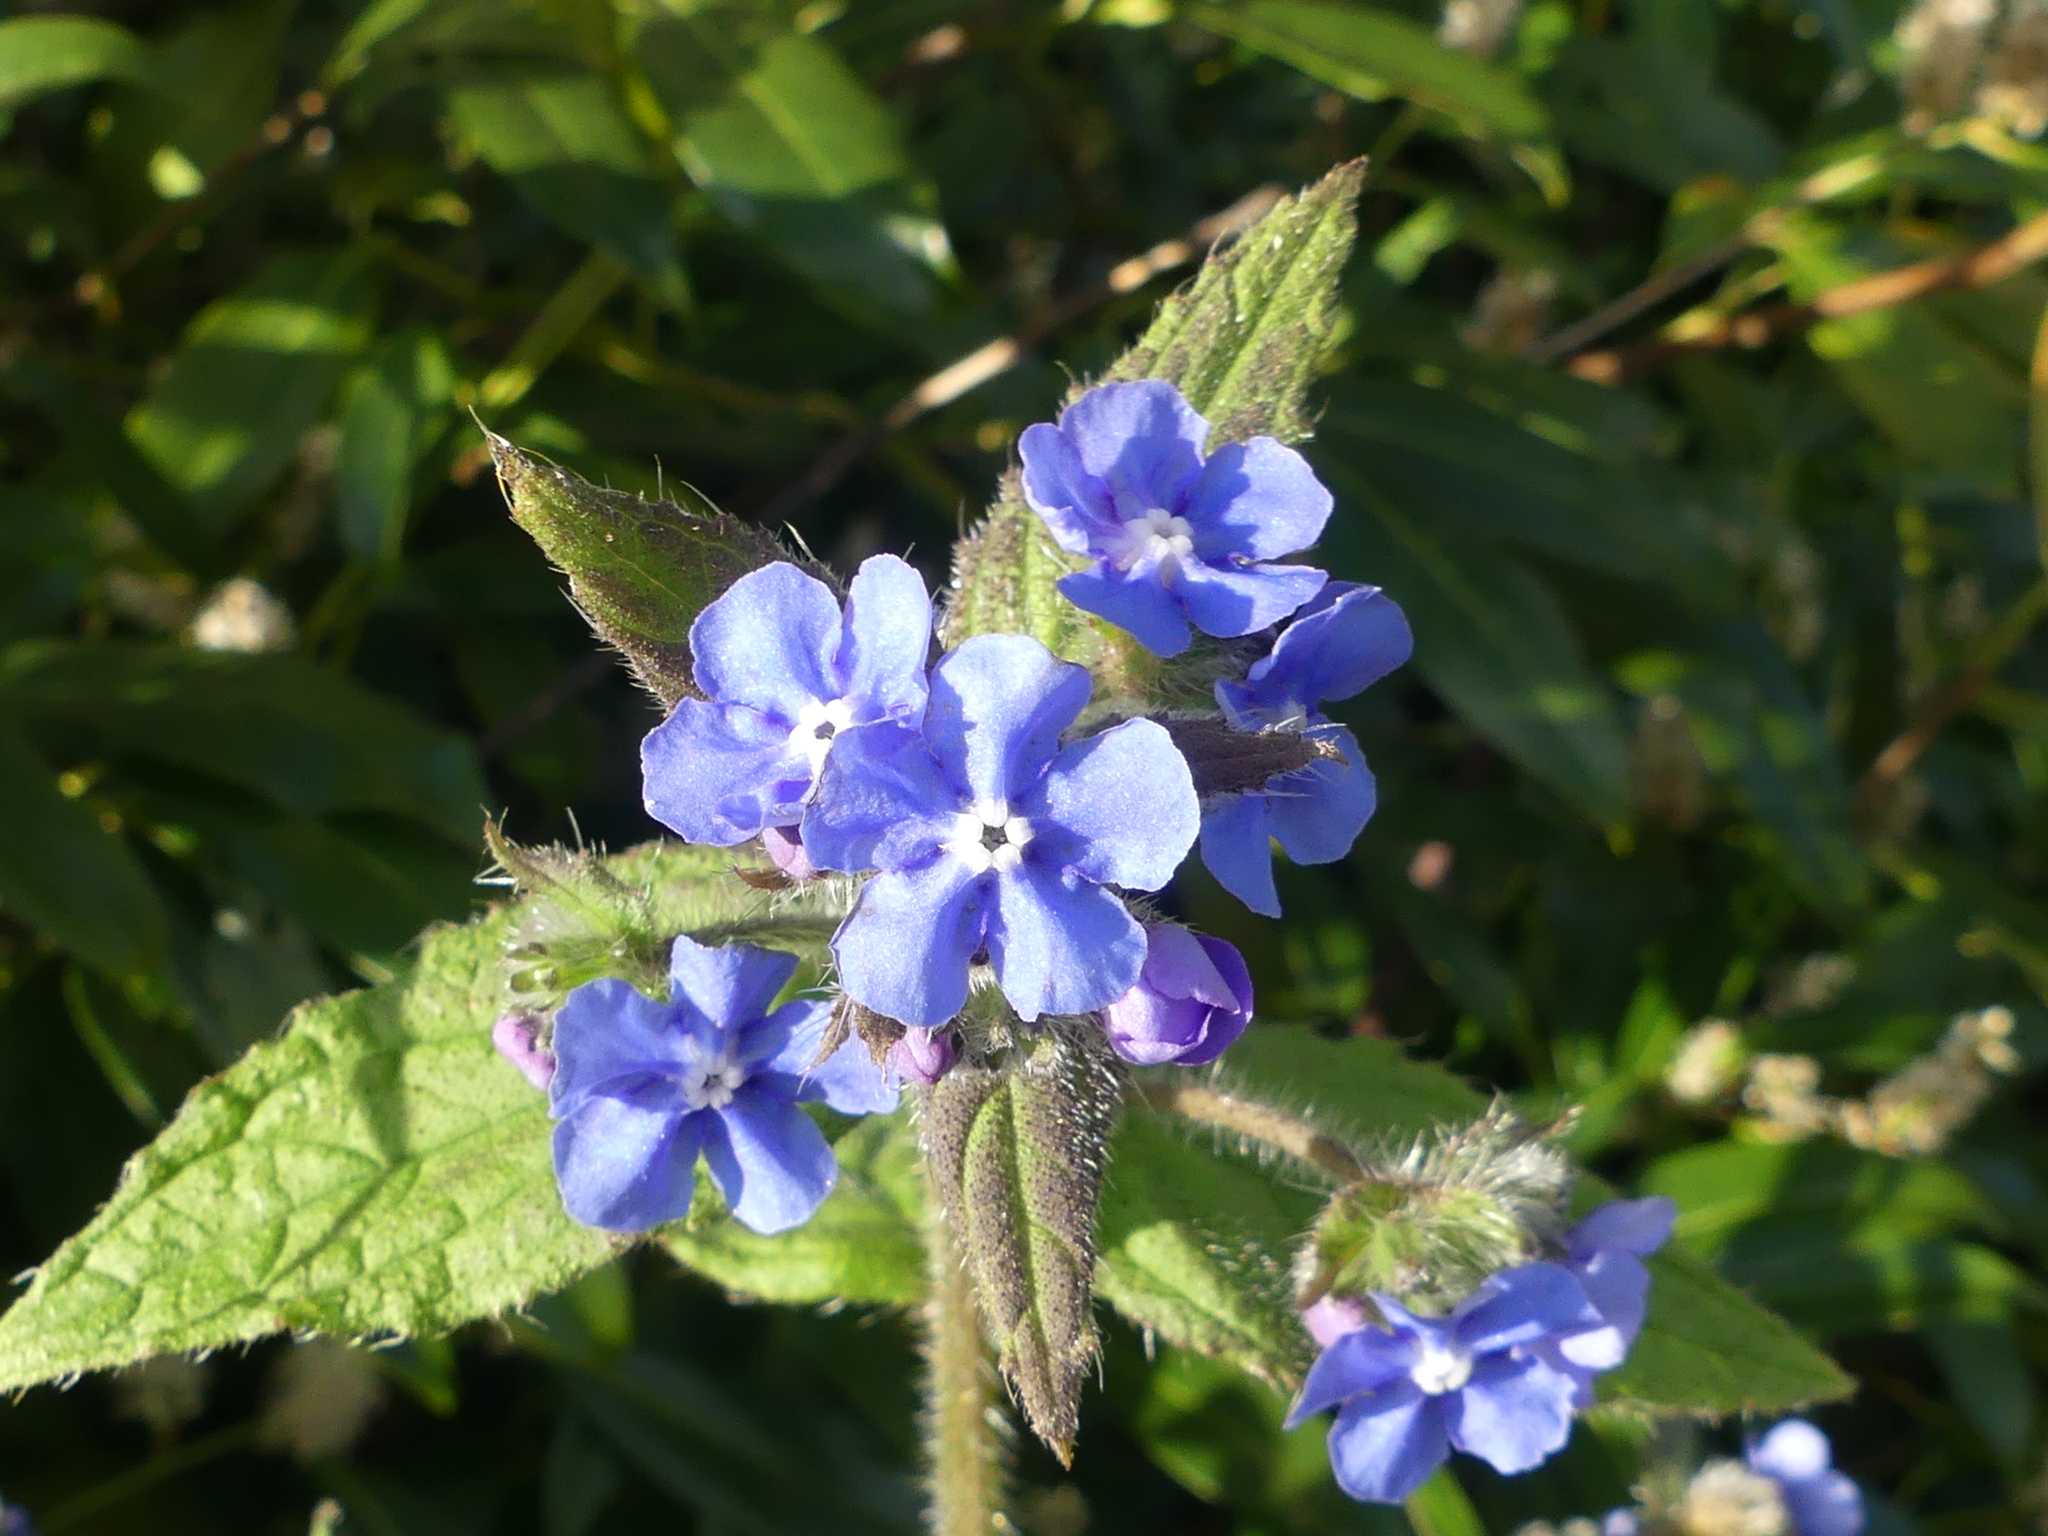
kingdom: Plantae
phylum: Tracheophyta
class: Magnoliopsida
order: Boraginales
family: Boraginaceae
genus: Pentaglottis
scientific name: Pentaglottis sempervirens
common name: Green alkanet
